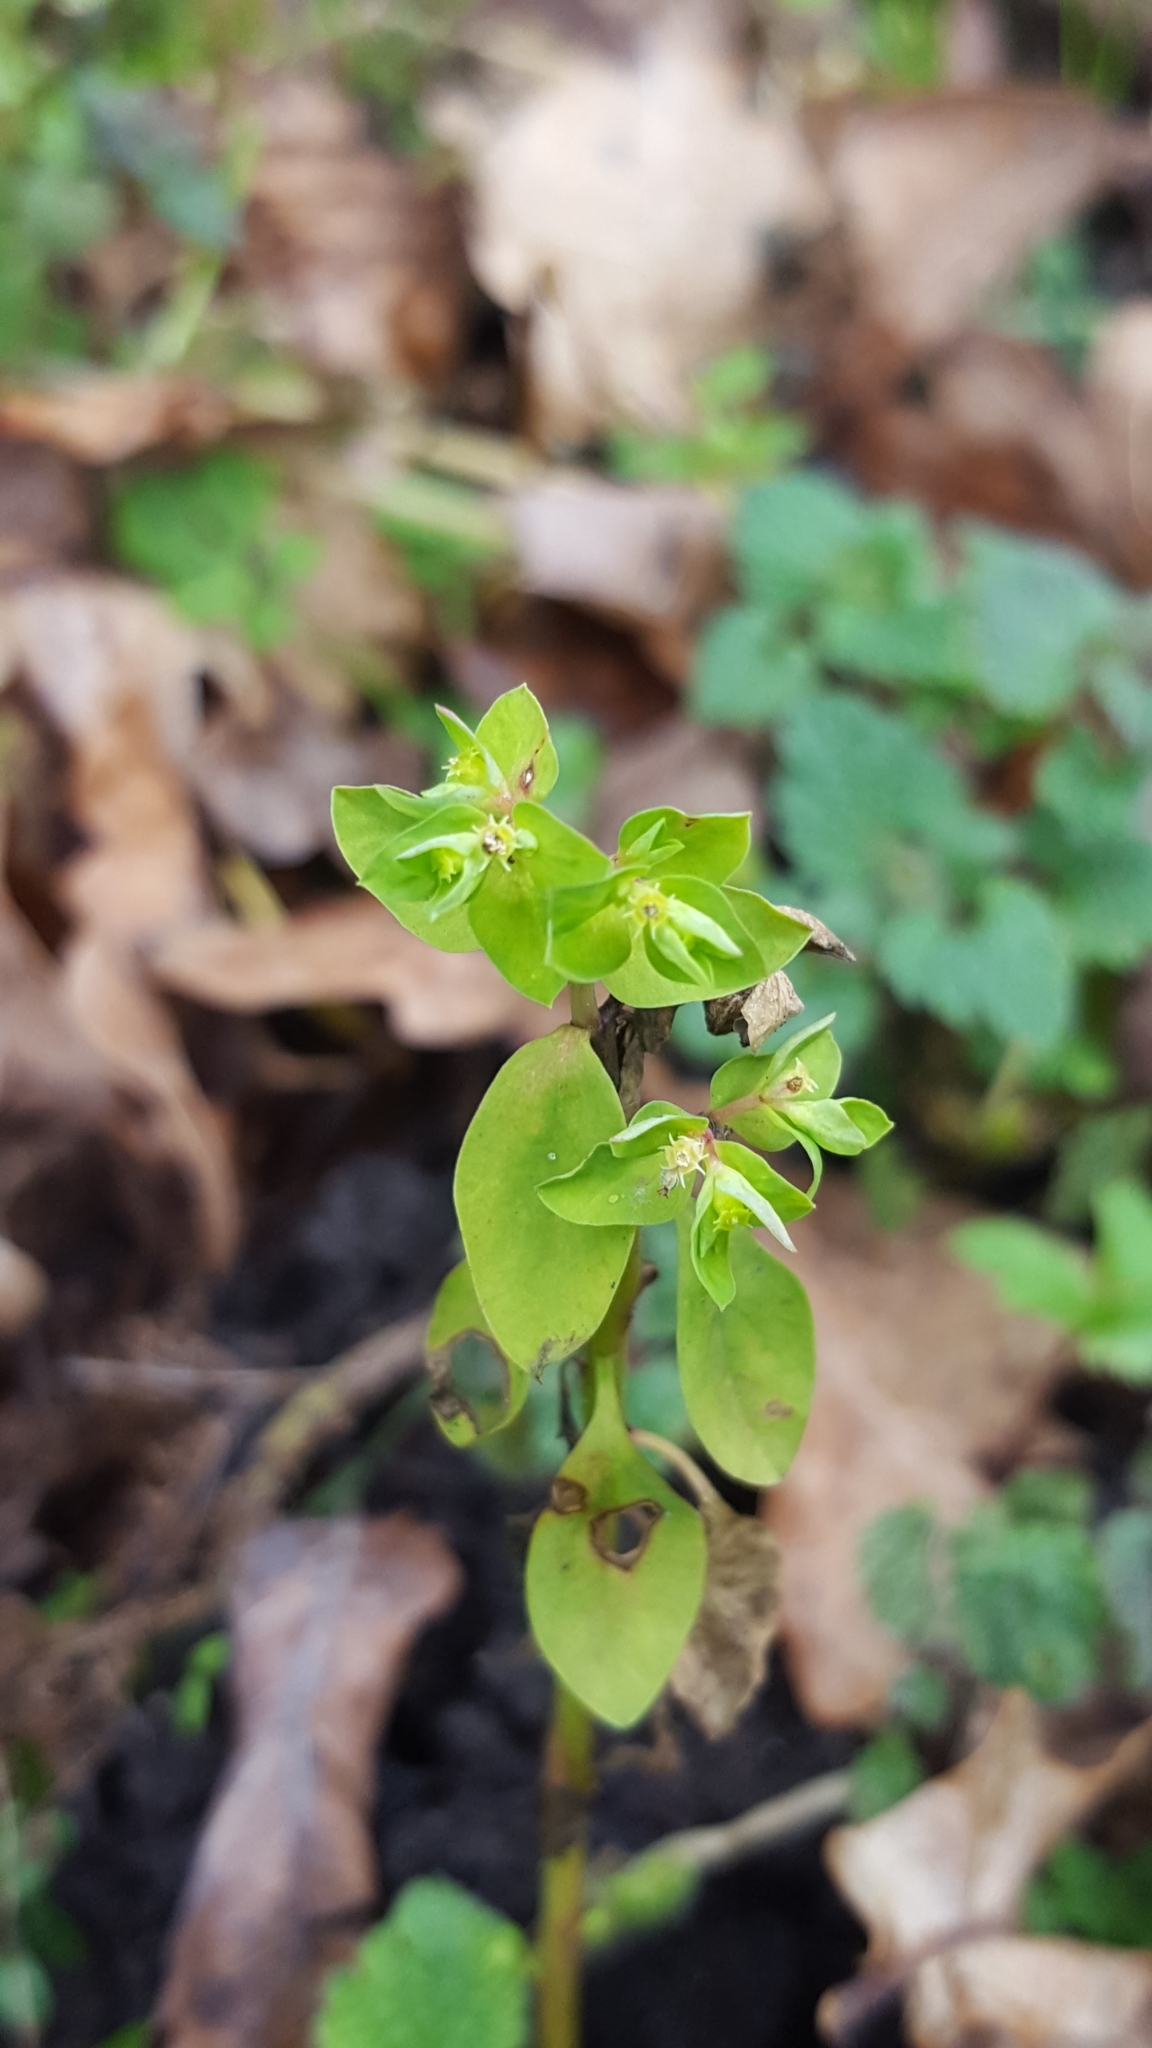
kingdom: Plantae
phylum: Tracheophyta
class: Magnoliopsida
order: Malpighiales
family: Euphorbiaceae
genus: Euphorbia
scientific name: Euphorbia peplus
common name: Petty spurge
